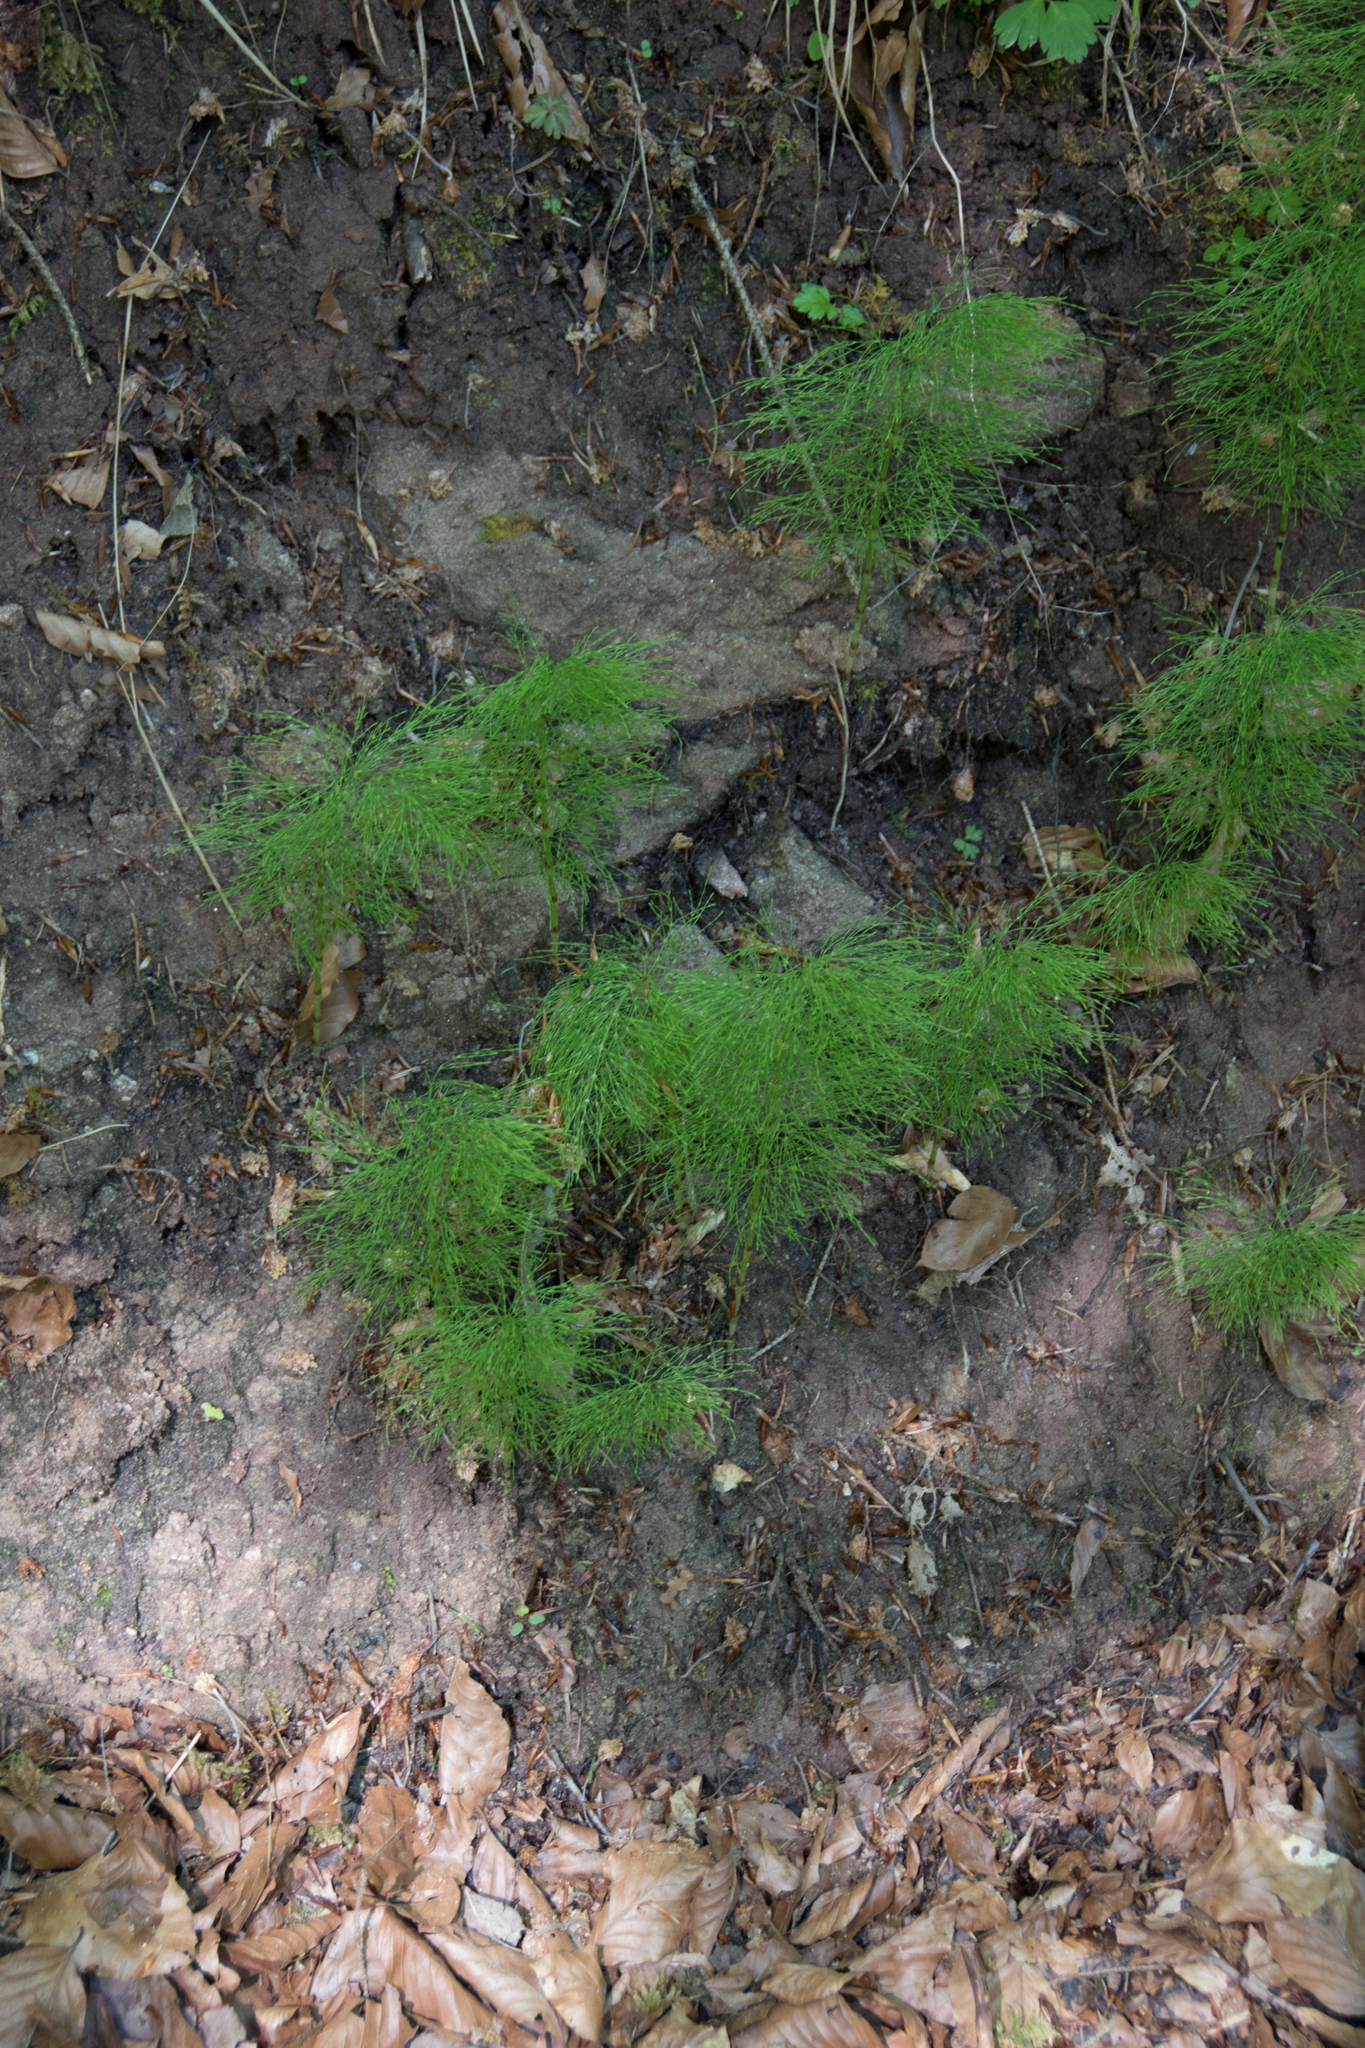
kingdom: Plantae
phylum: Tracheophyta
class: Polypodiopsida
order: Equisetales
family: Equisetaceae
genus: Equisetum
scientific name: Equisetum sylvaticum
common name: Wood horsetail
